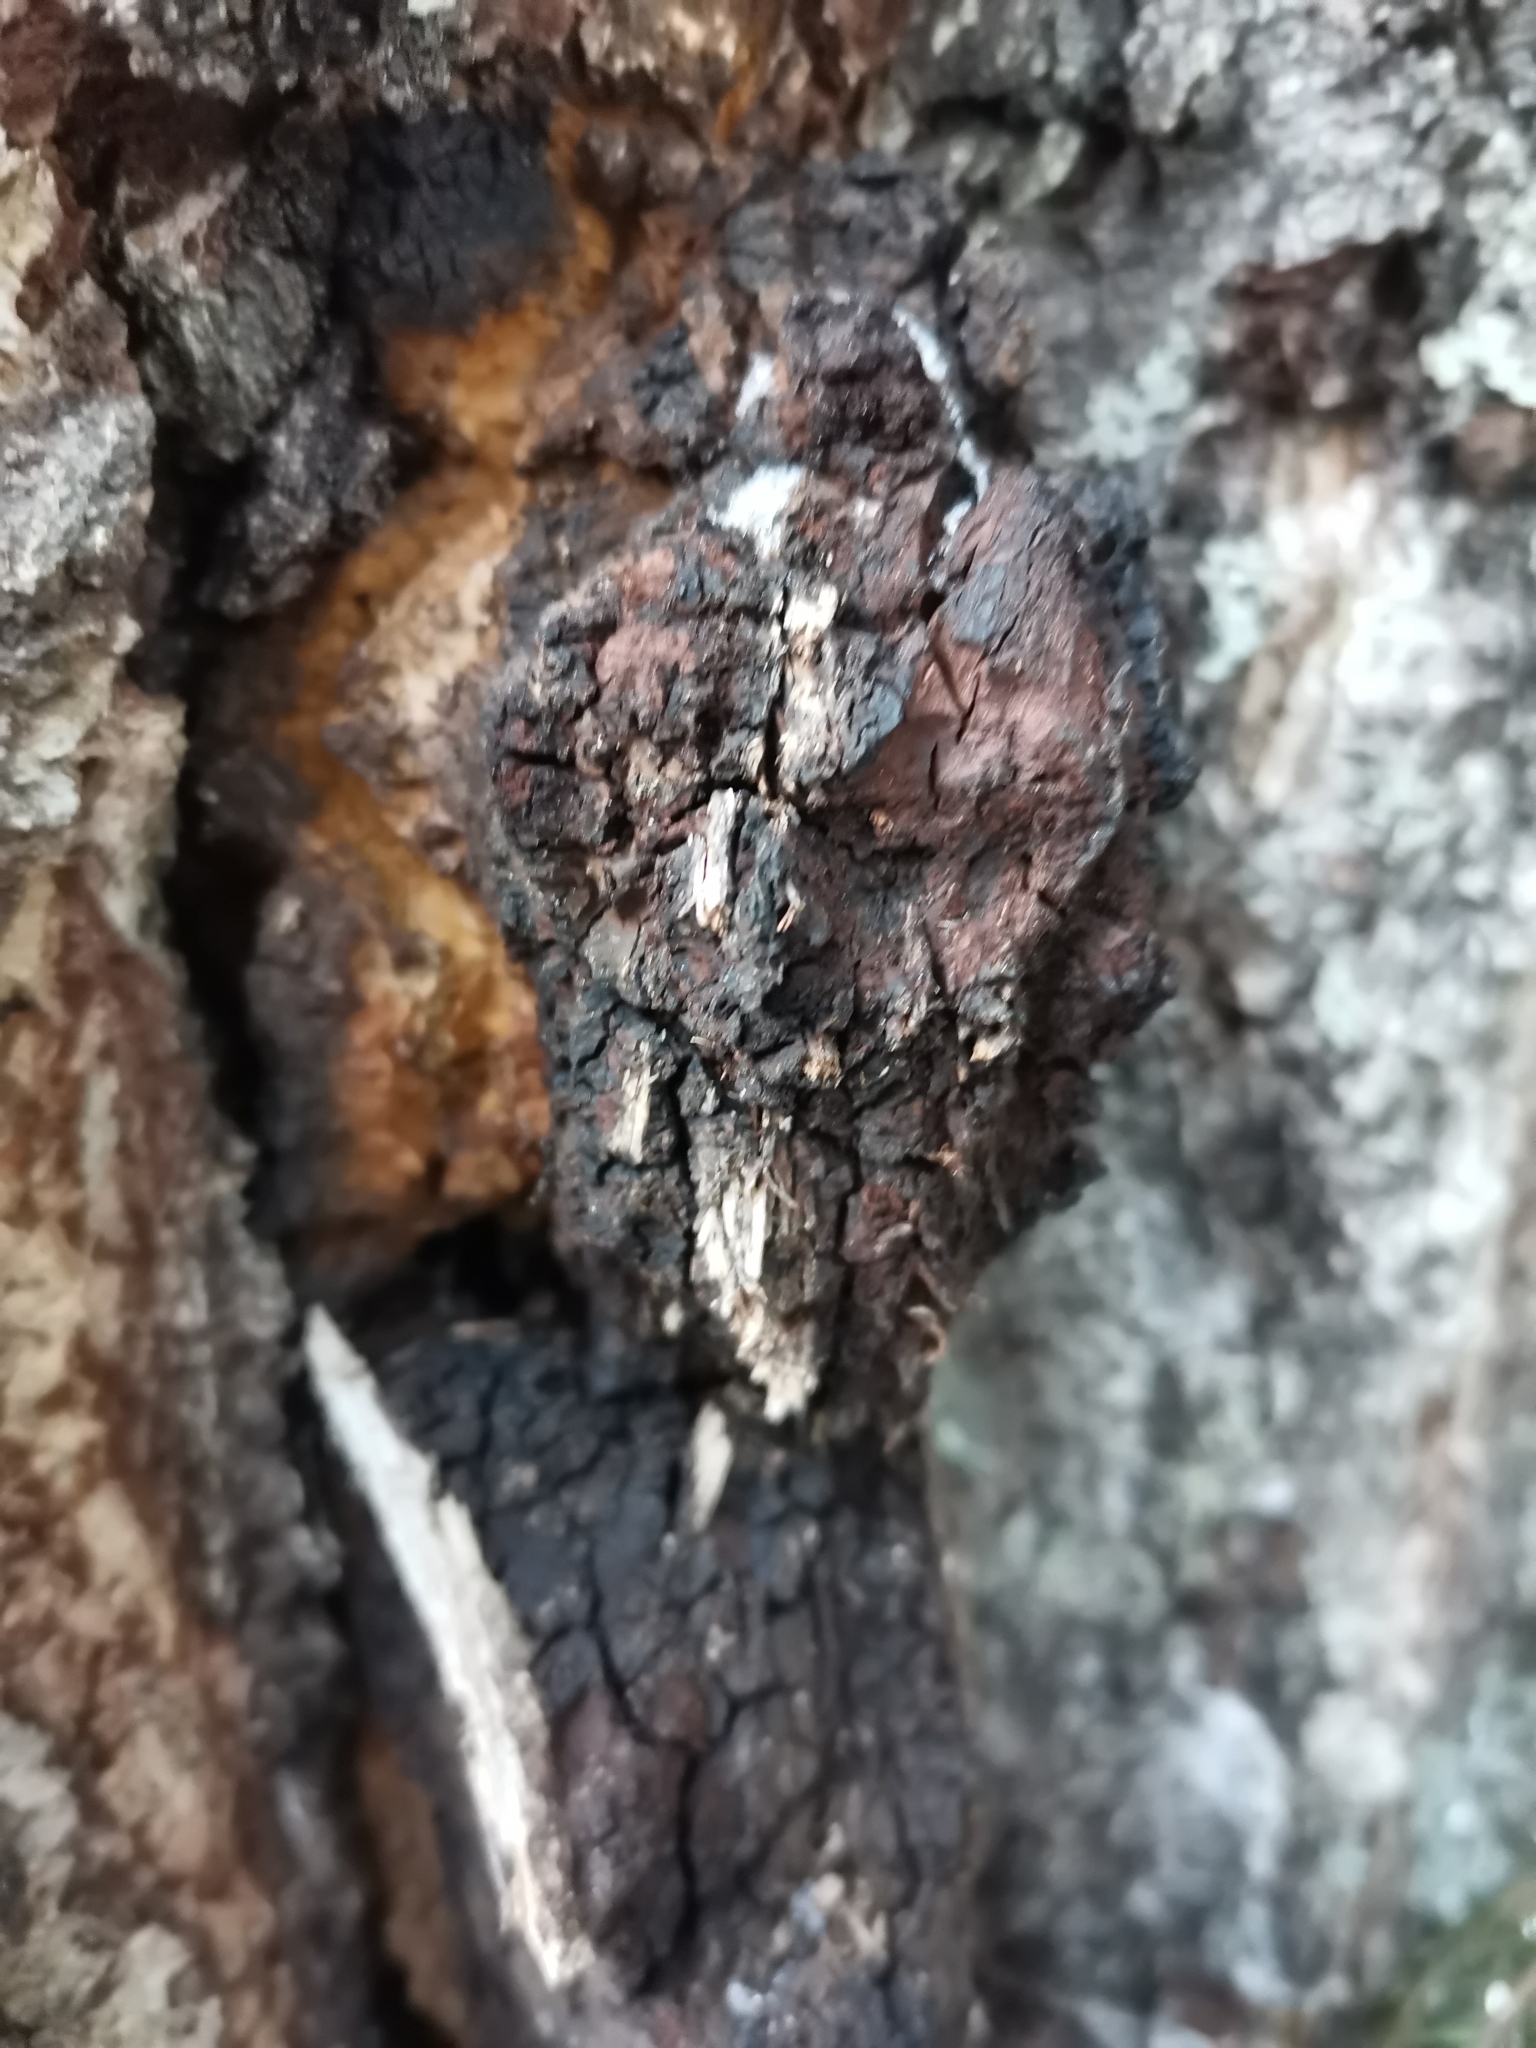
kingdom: Fungi
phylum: Basidiomycota
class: Agaricomycetes
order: Hymenochaetales
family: Hymenochaetaceae
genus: Inonotus
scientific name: Inonotus obliquus
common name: Chaga
